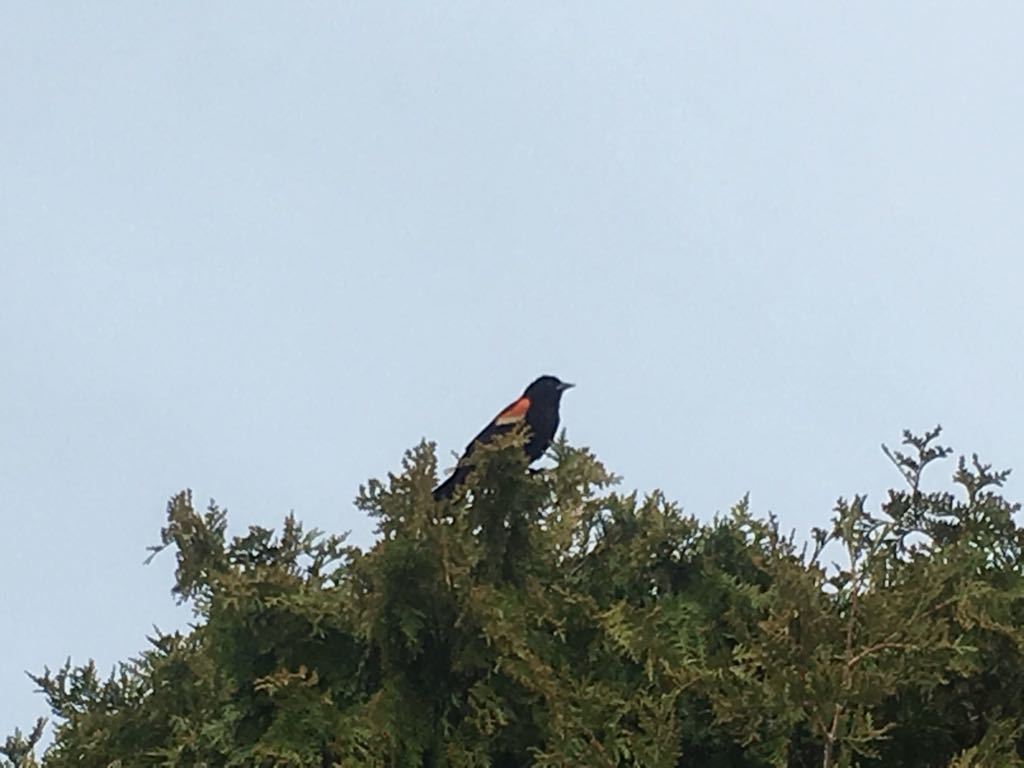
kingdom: Animalia
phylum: Chordata
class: Aves
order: Passeriformes
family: Icteridae
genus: Agelaius
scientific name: Agelaius phoeniceus
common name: Red-winged blackbird
